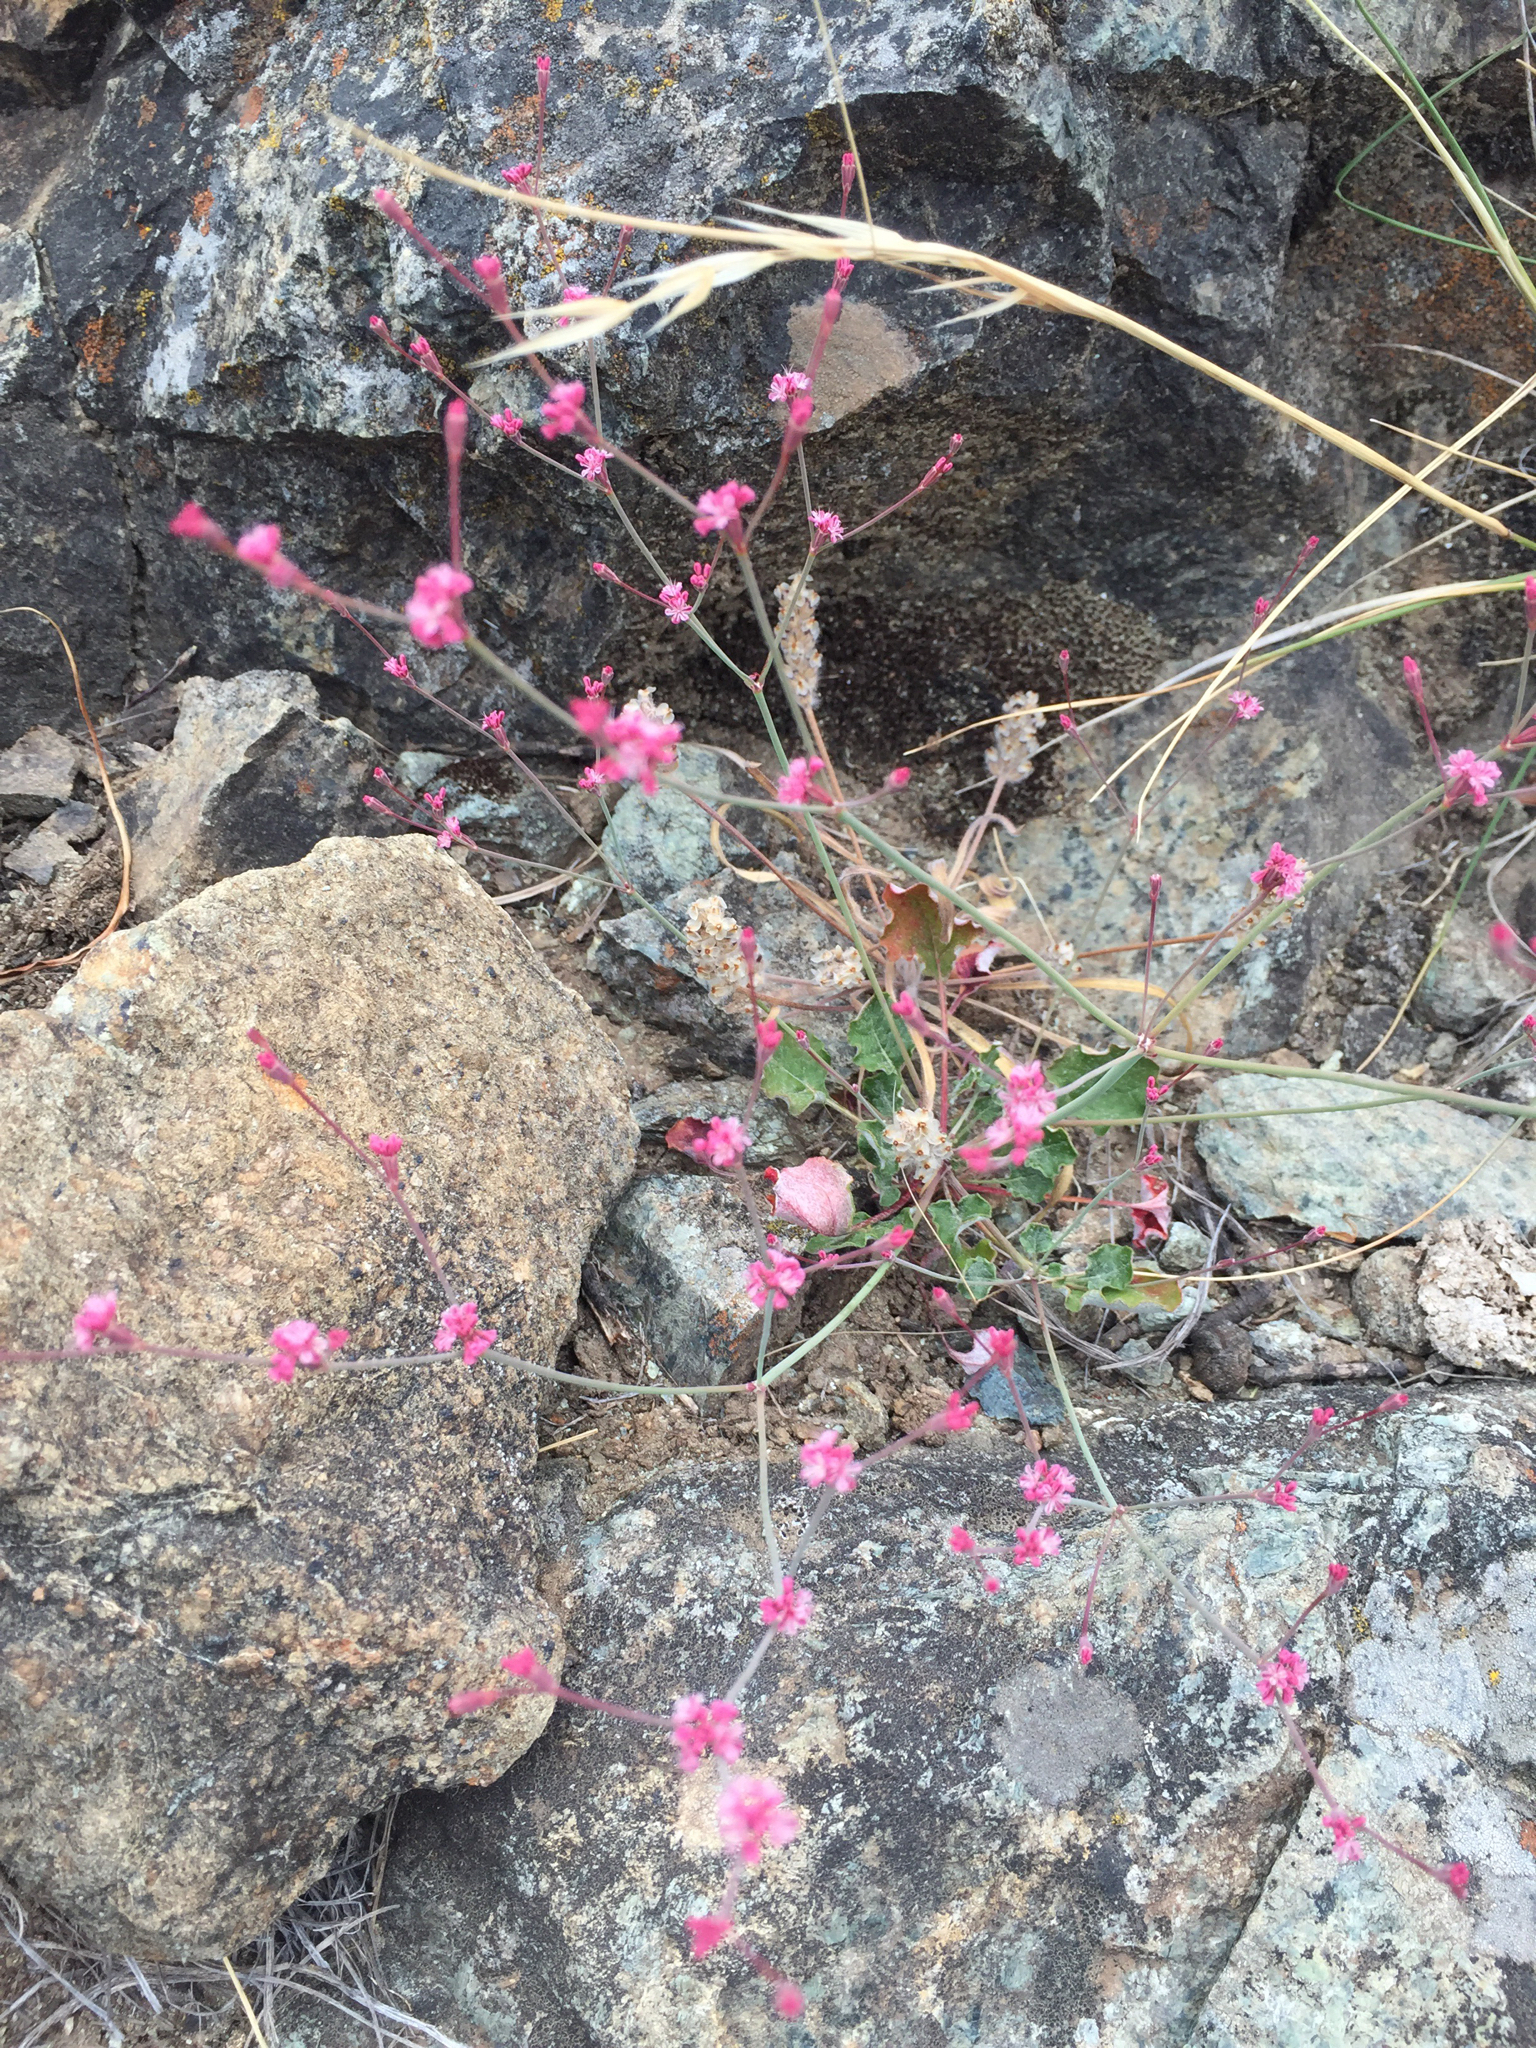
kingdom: Plantae
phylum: Tracheophyta
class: Magnoliopsida
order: Caryophyllales
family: Polygonaceae
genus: Eriogonum
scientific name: Eriogonum luteolum
